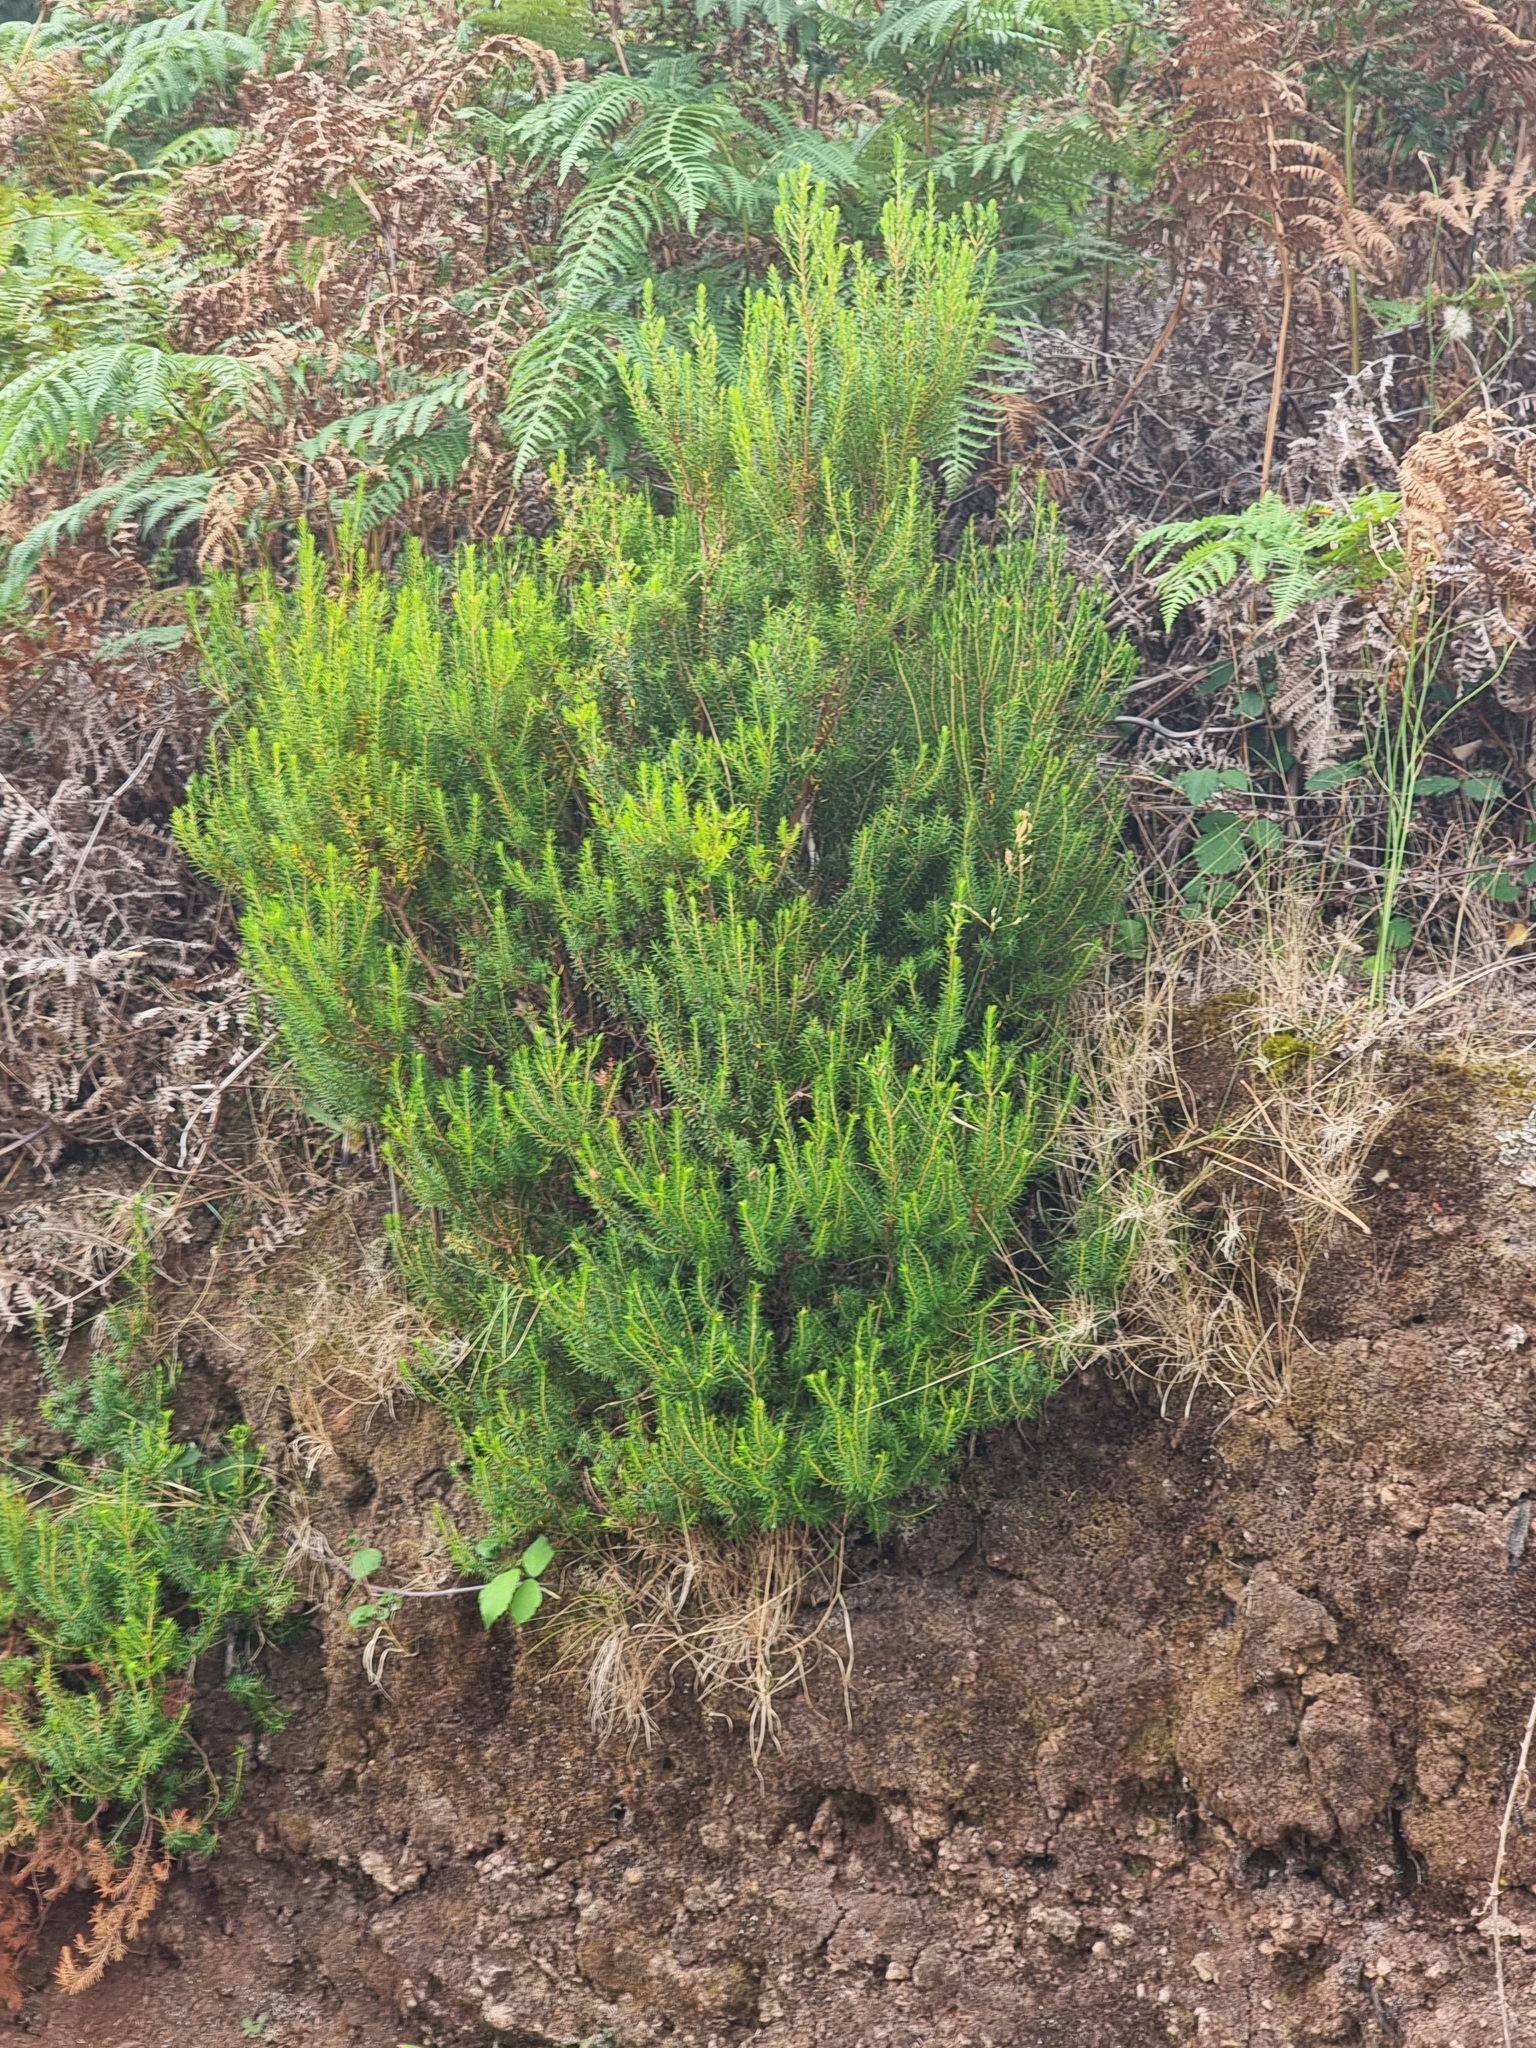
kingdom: Plantae
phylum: Tracheophyta
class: Magnoliopsida
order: Ericales
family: Ericaceae
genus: Erica
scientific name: Erica platycodon
